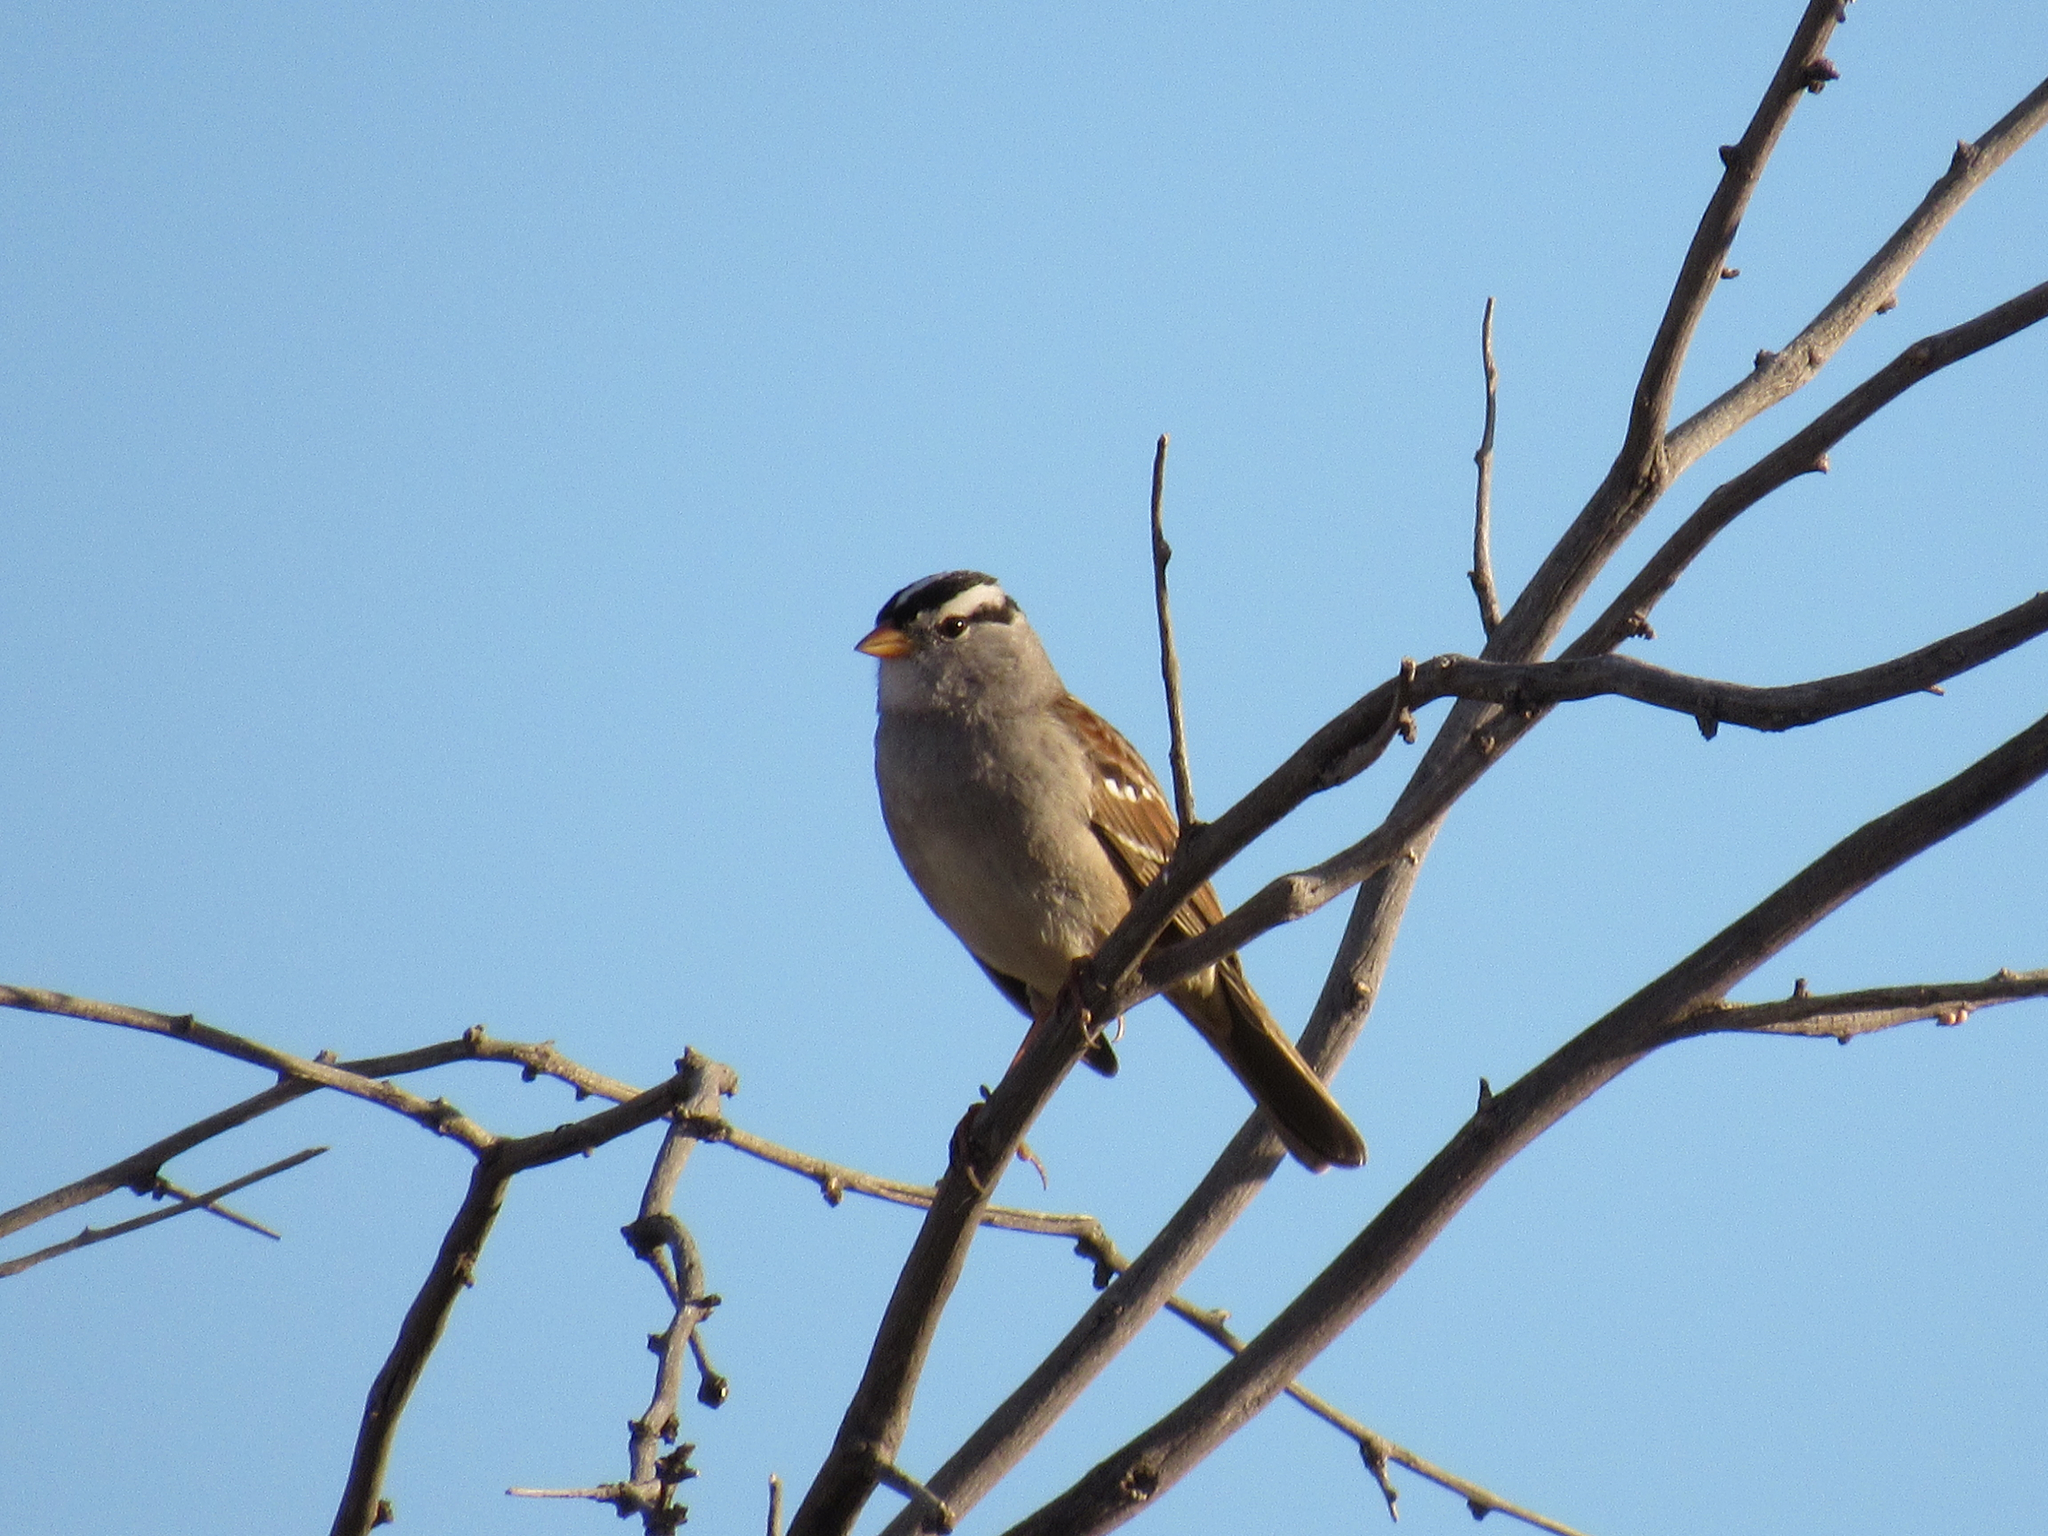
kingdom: Animalia
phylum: Chordata
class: Aves
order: Passeriformes
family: Passerellidae
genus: Zonotrichia
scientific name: Zonotrichia leucophrys
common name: White-crowned sparrow
